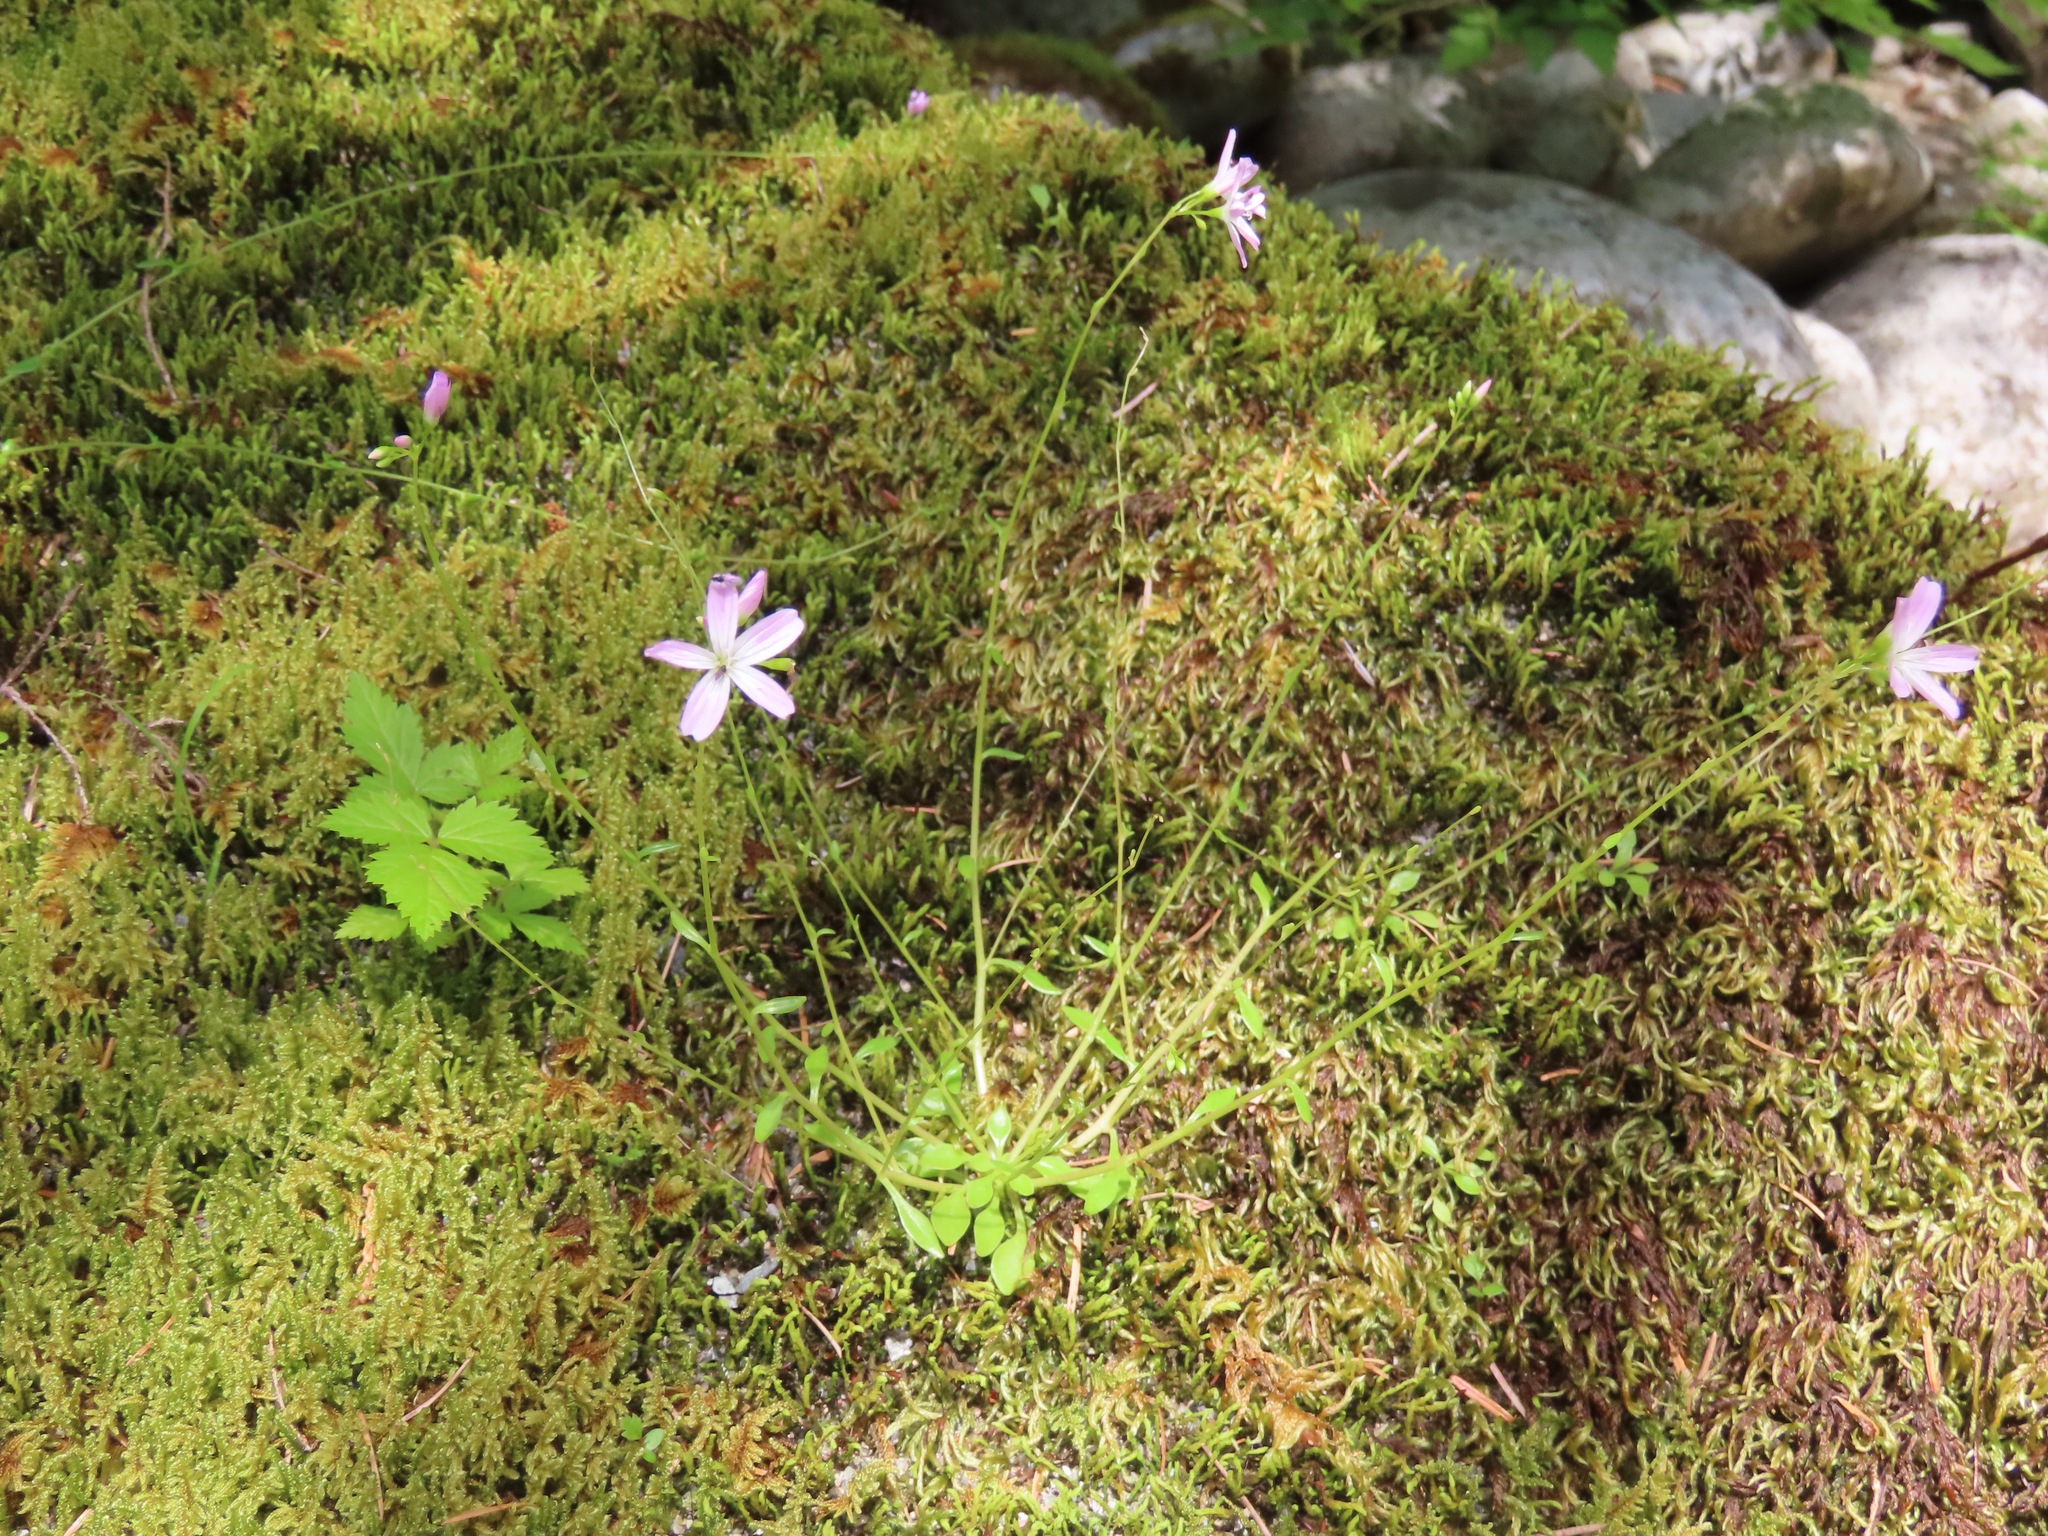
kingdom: Plantae
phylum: Tracheophyta
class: Magnoliopsida
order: Caryophyllales
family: Montiaceae
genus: Montia
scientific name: Montia parvifolia
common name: Small-leaved blinks
